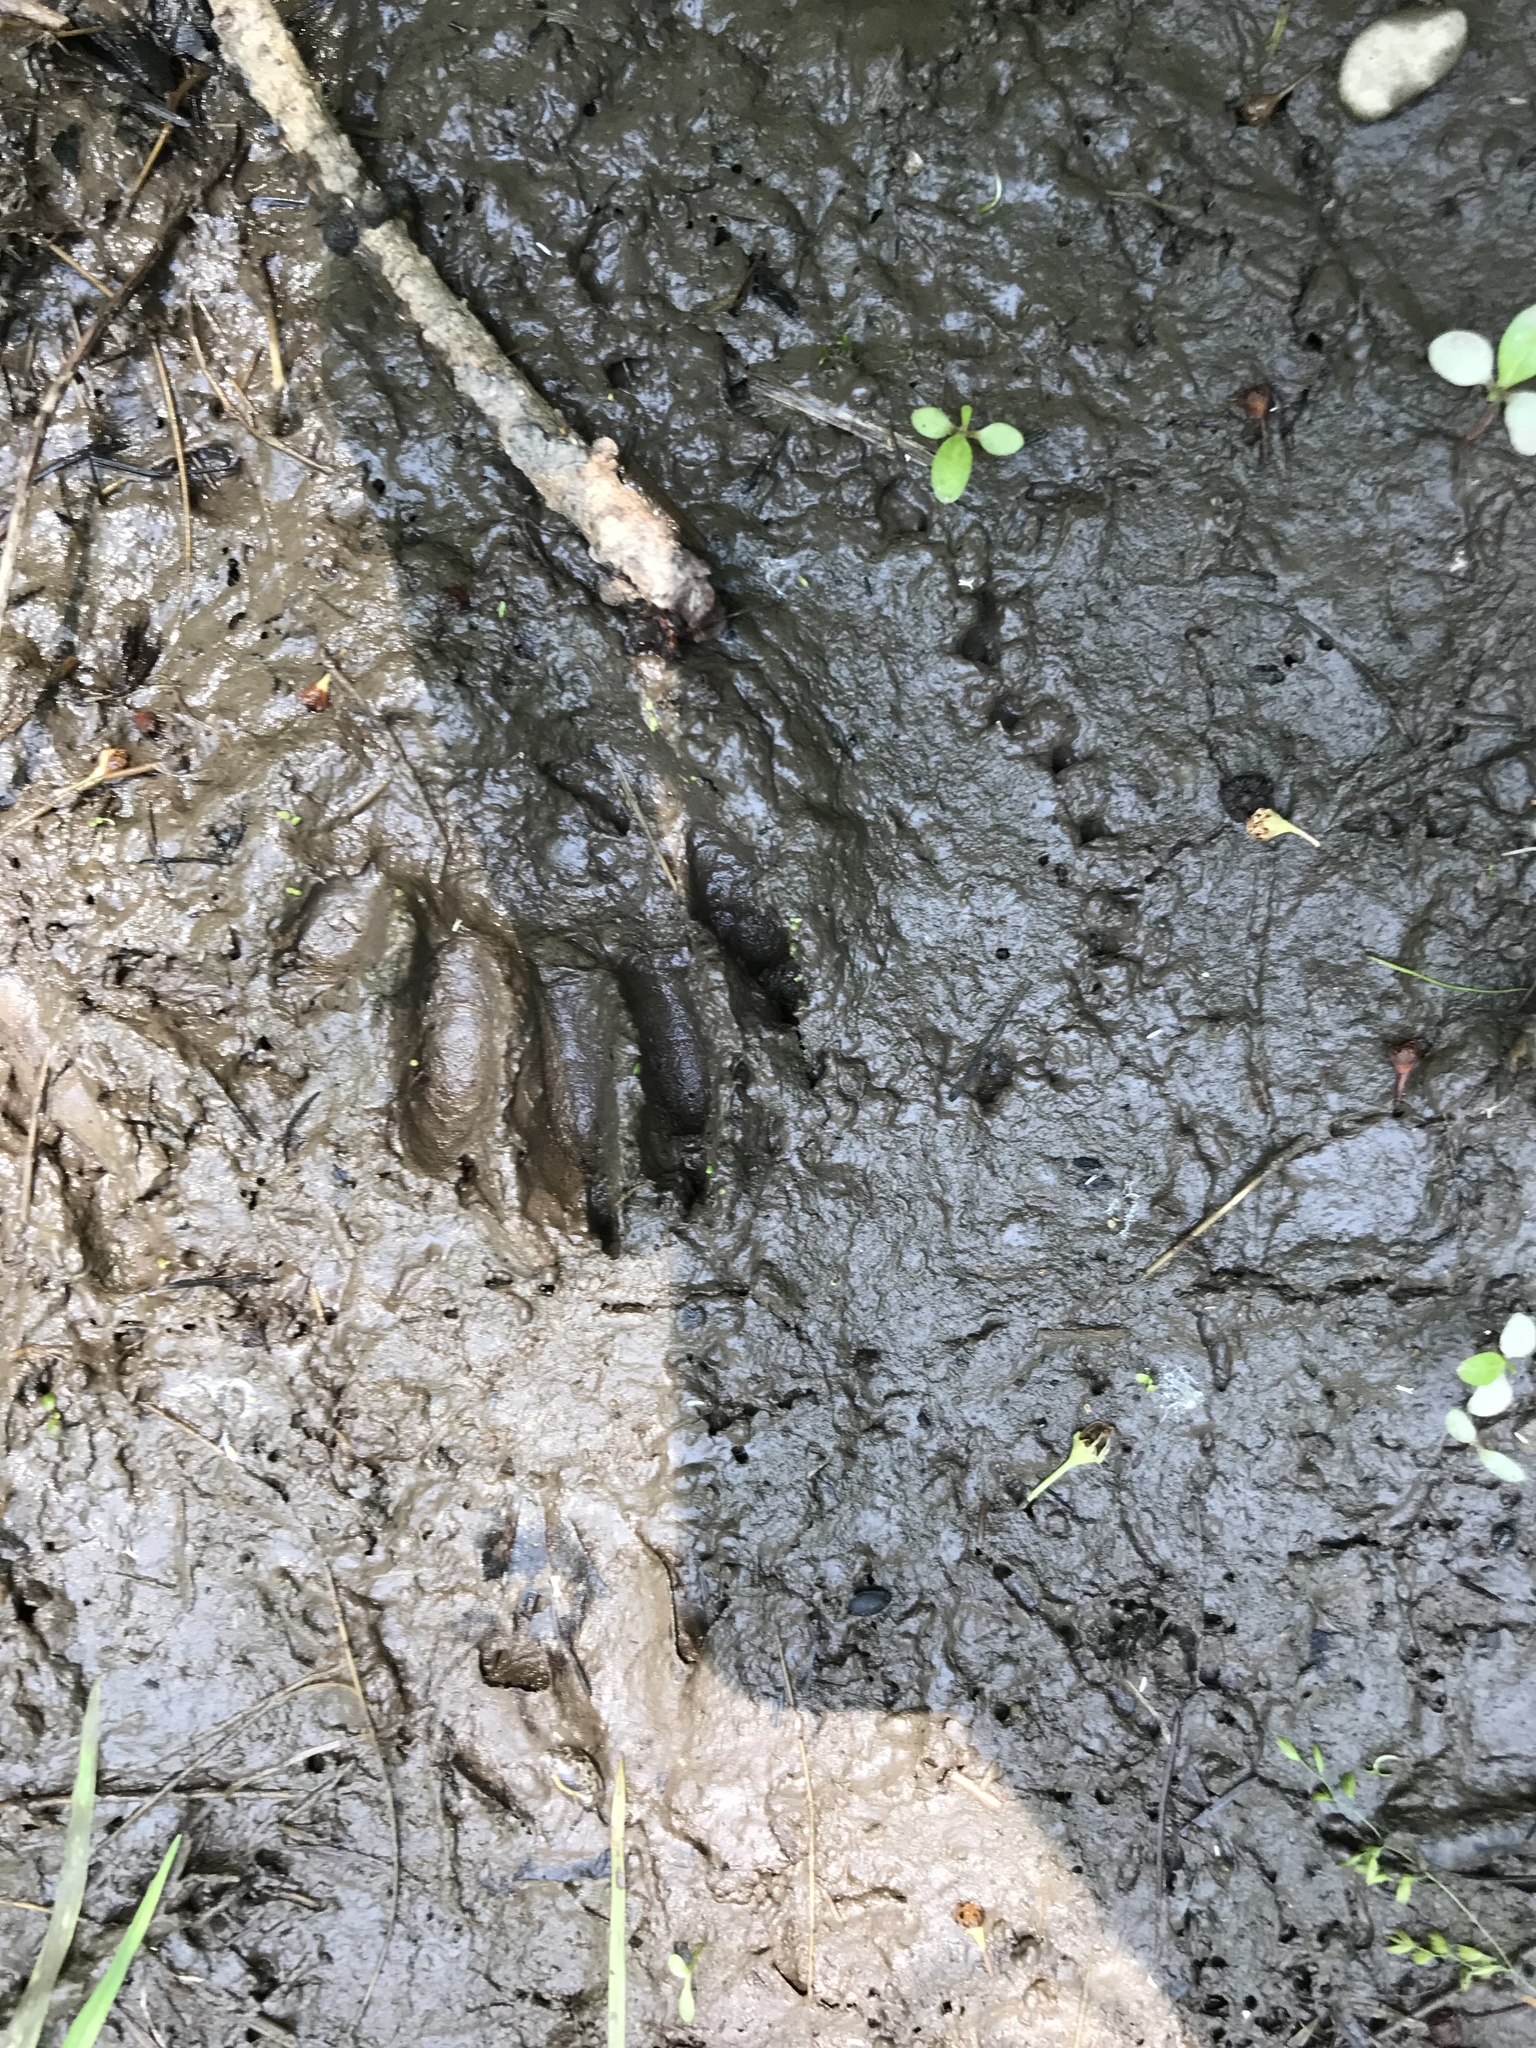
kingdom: Animalia
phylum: Chordata
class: Mammalia
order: Carnivora
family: Procyonidae
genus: Procyon
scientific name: Procyon lotor
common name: Raccoon
